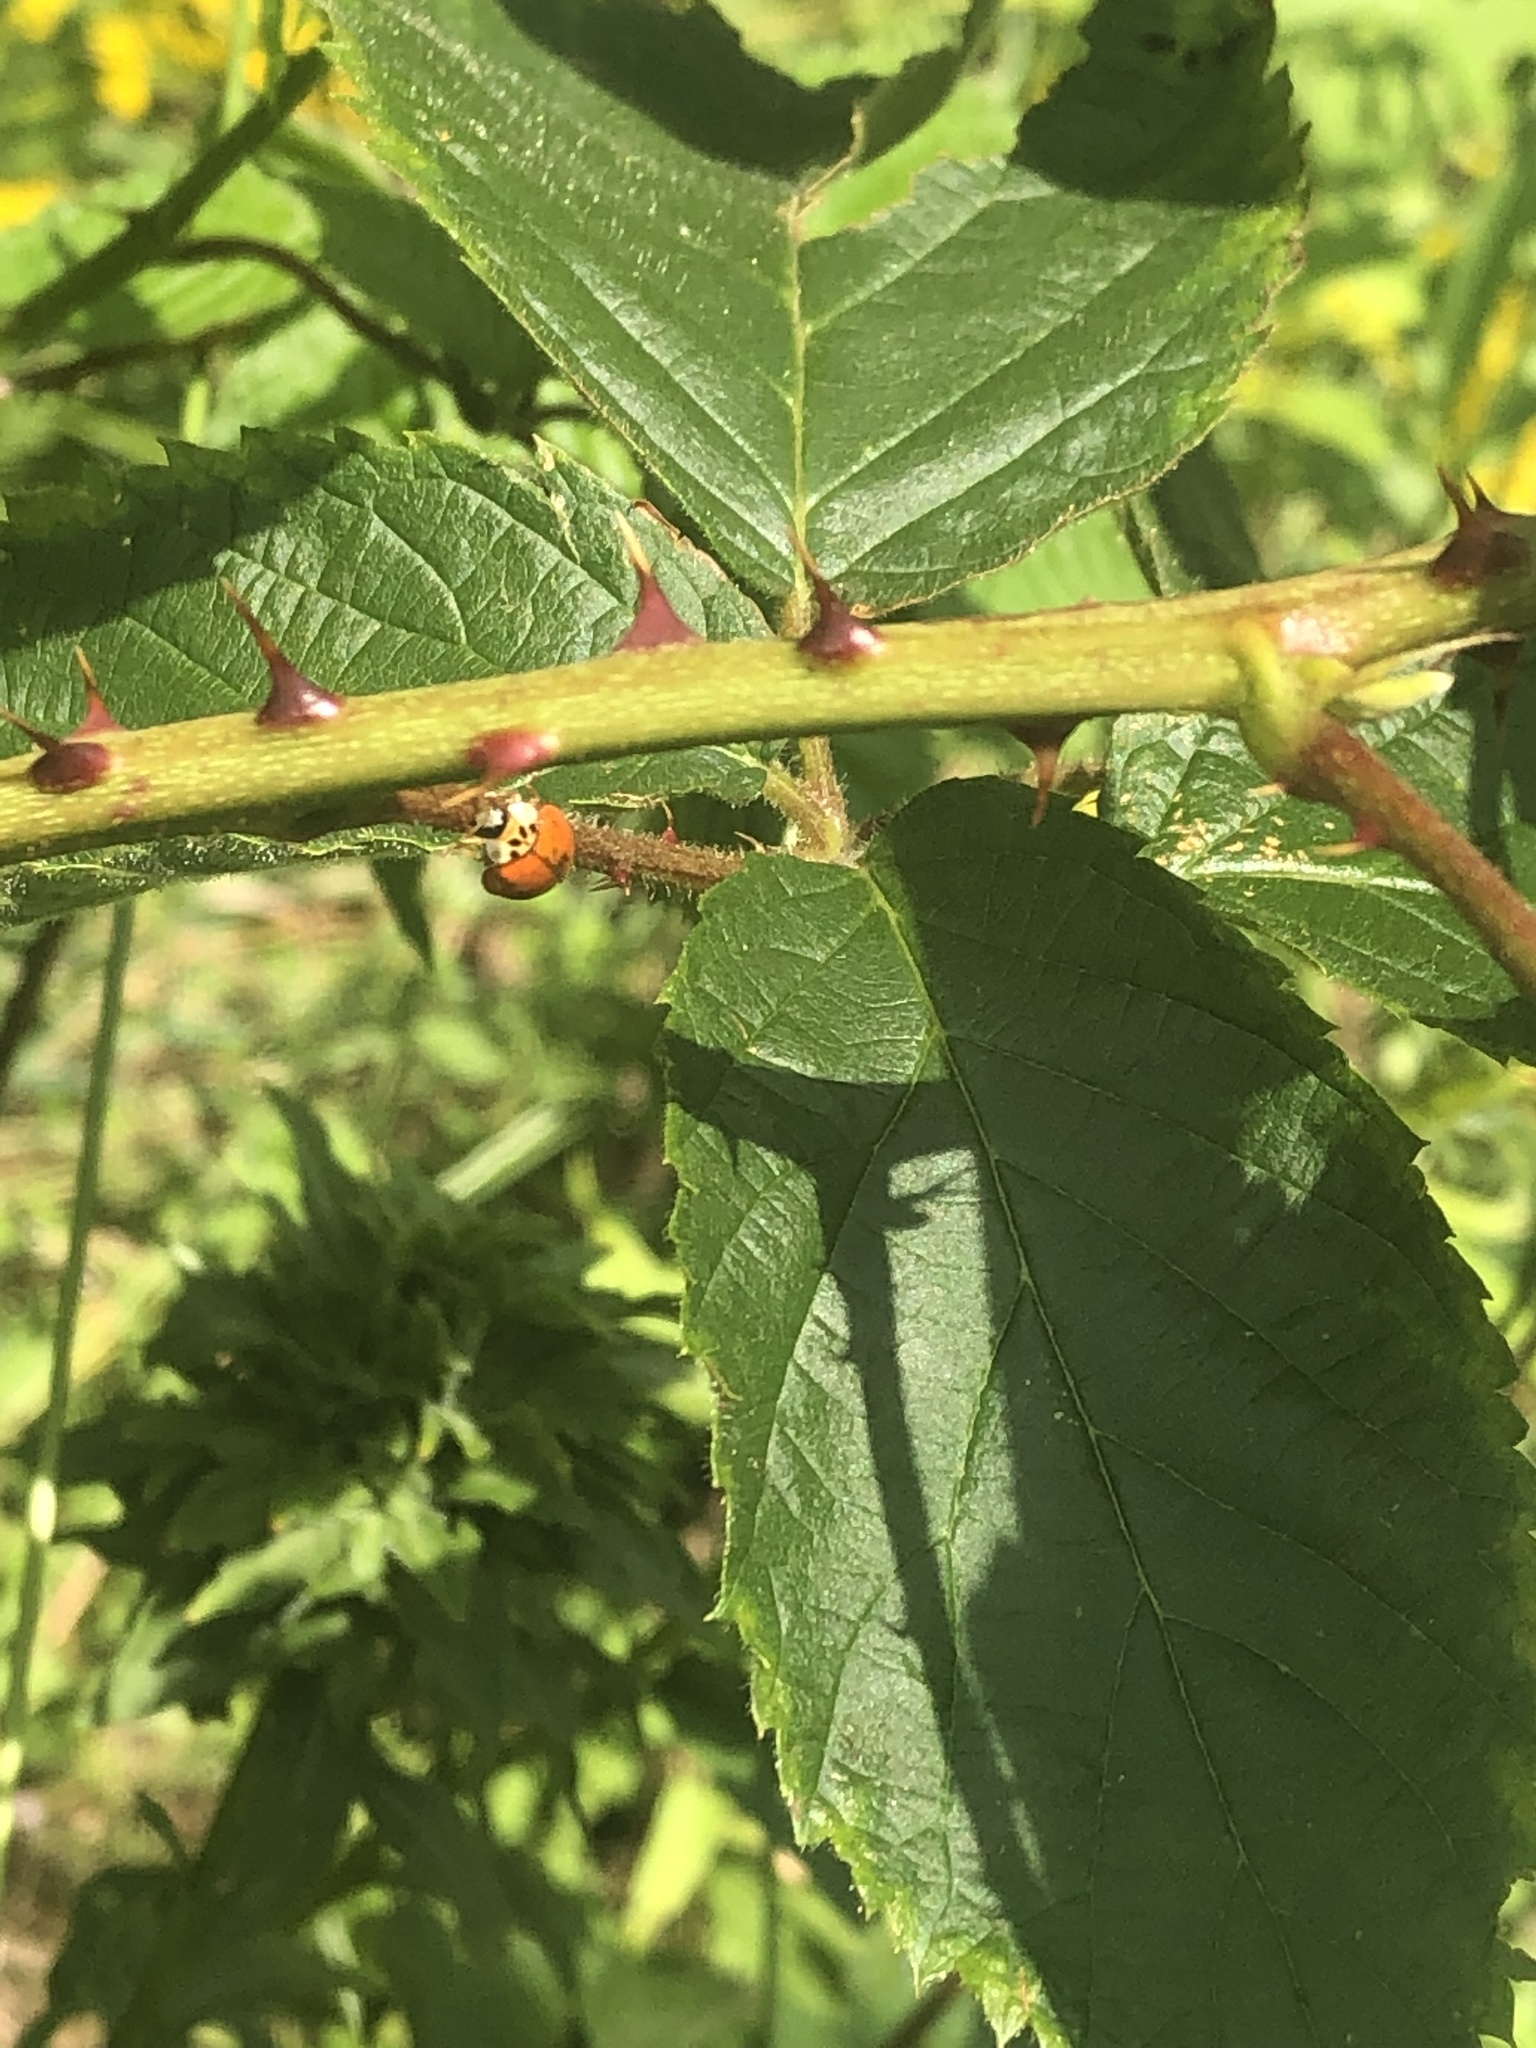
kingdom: Animalia
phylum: Arthropoda
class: Insecta
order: Coleoptera
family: Coccinellidae
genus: Harmonia
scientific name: Harmonia axyridis
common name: Harlequin ladybird
